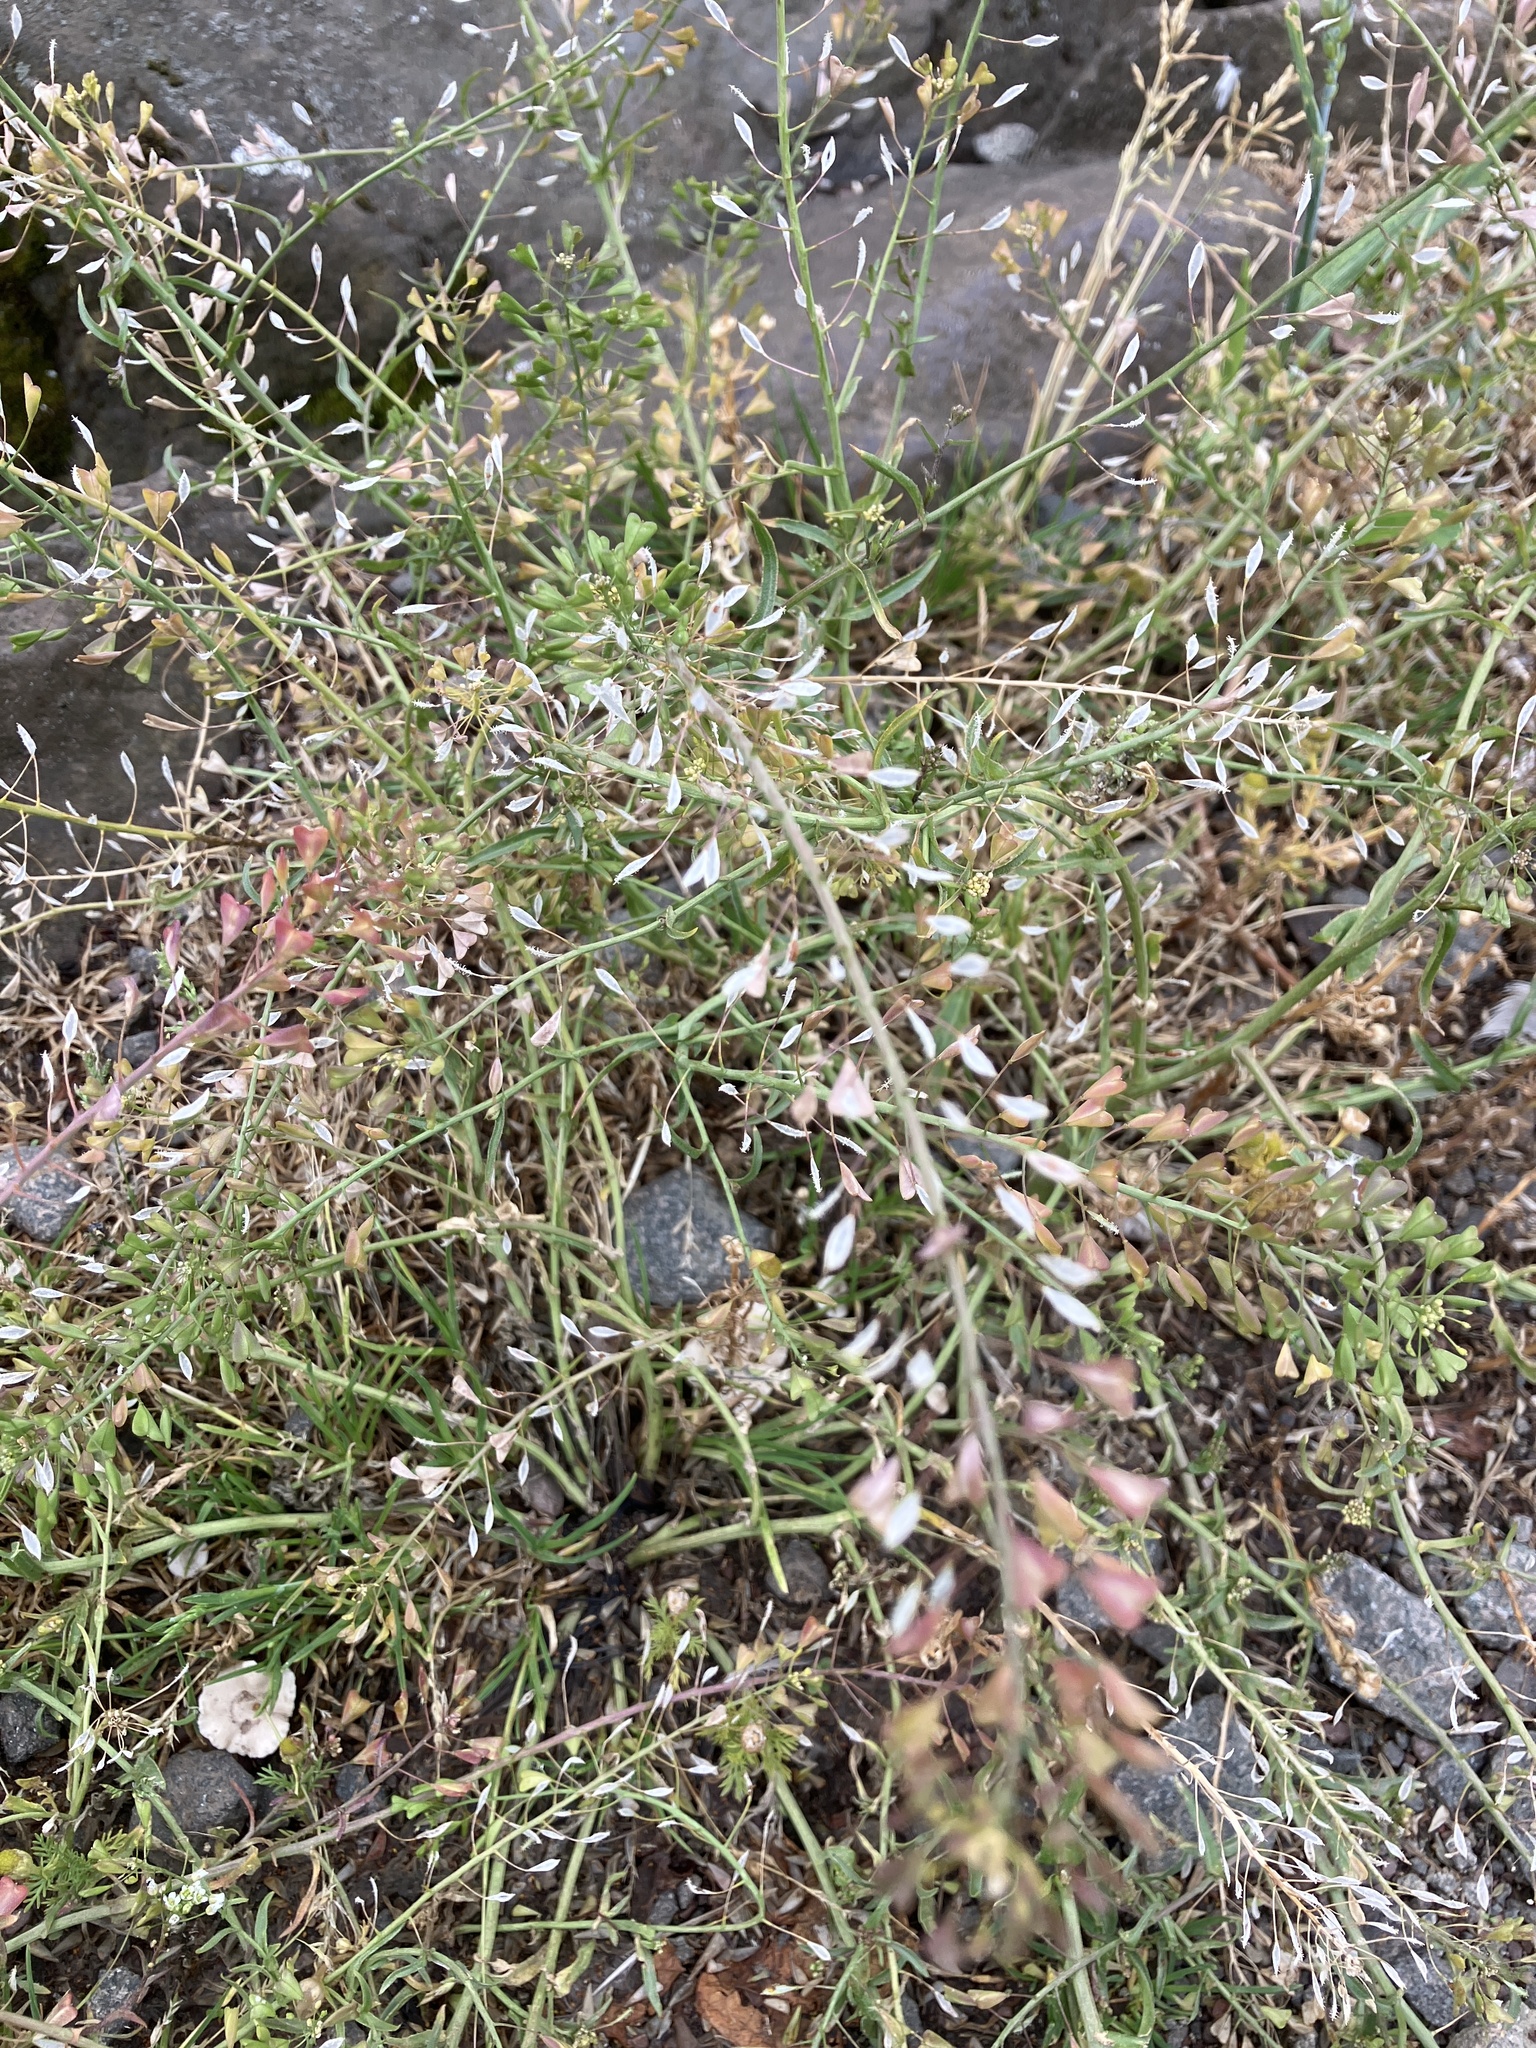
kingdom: Plantae
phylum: Tracheophyta
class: Magnoliopsida
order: Brassicales
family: Brassicaceae
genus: Capsella
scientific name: Capsella bursa-pastoris
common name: Shepherd's purse
